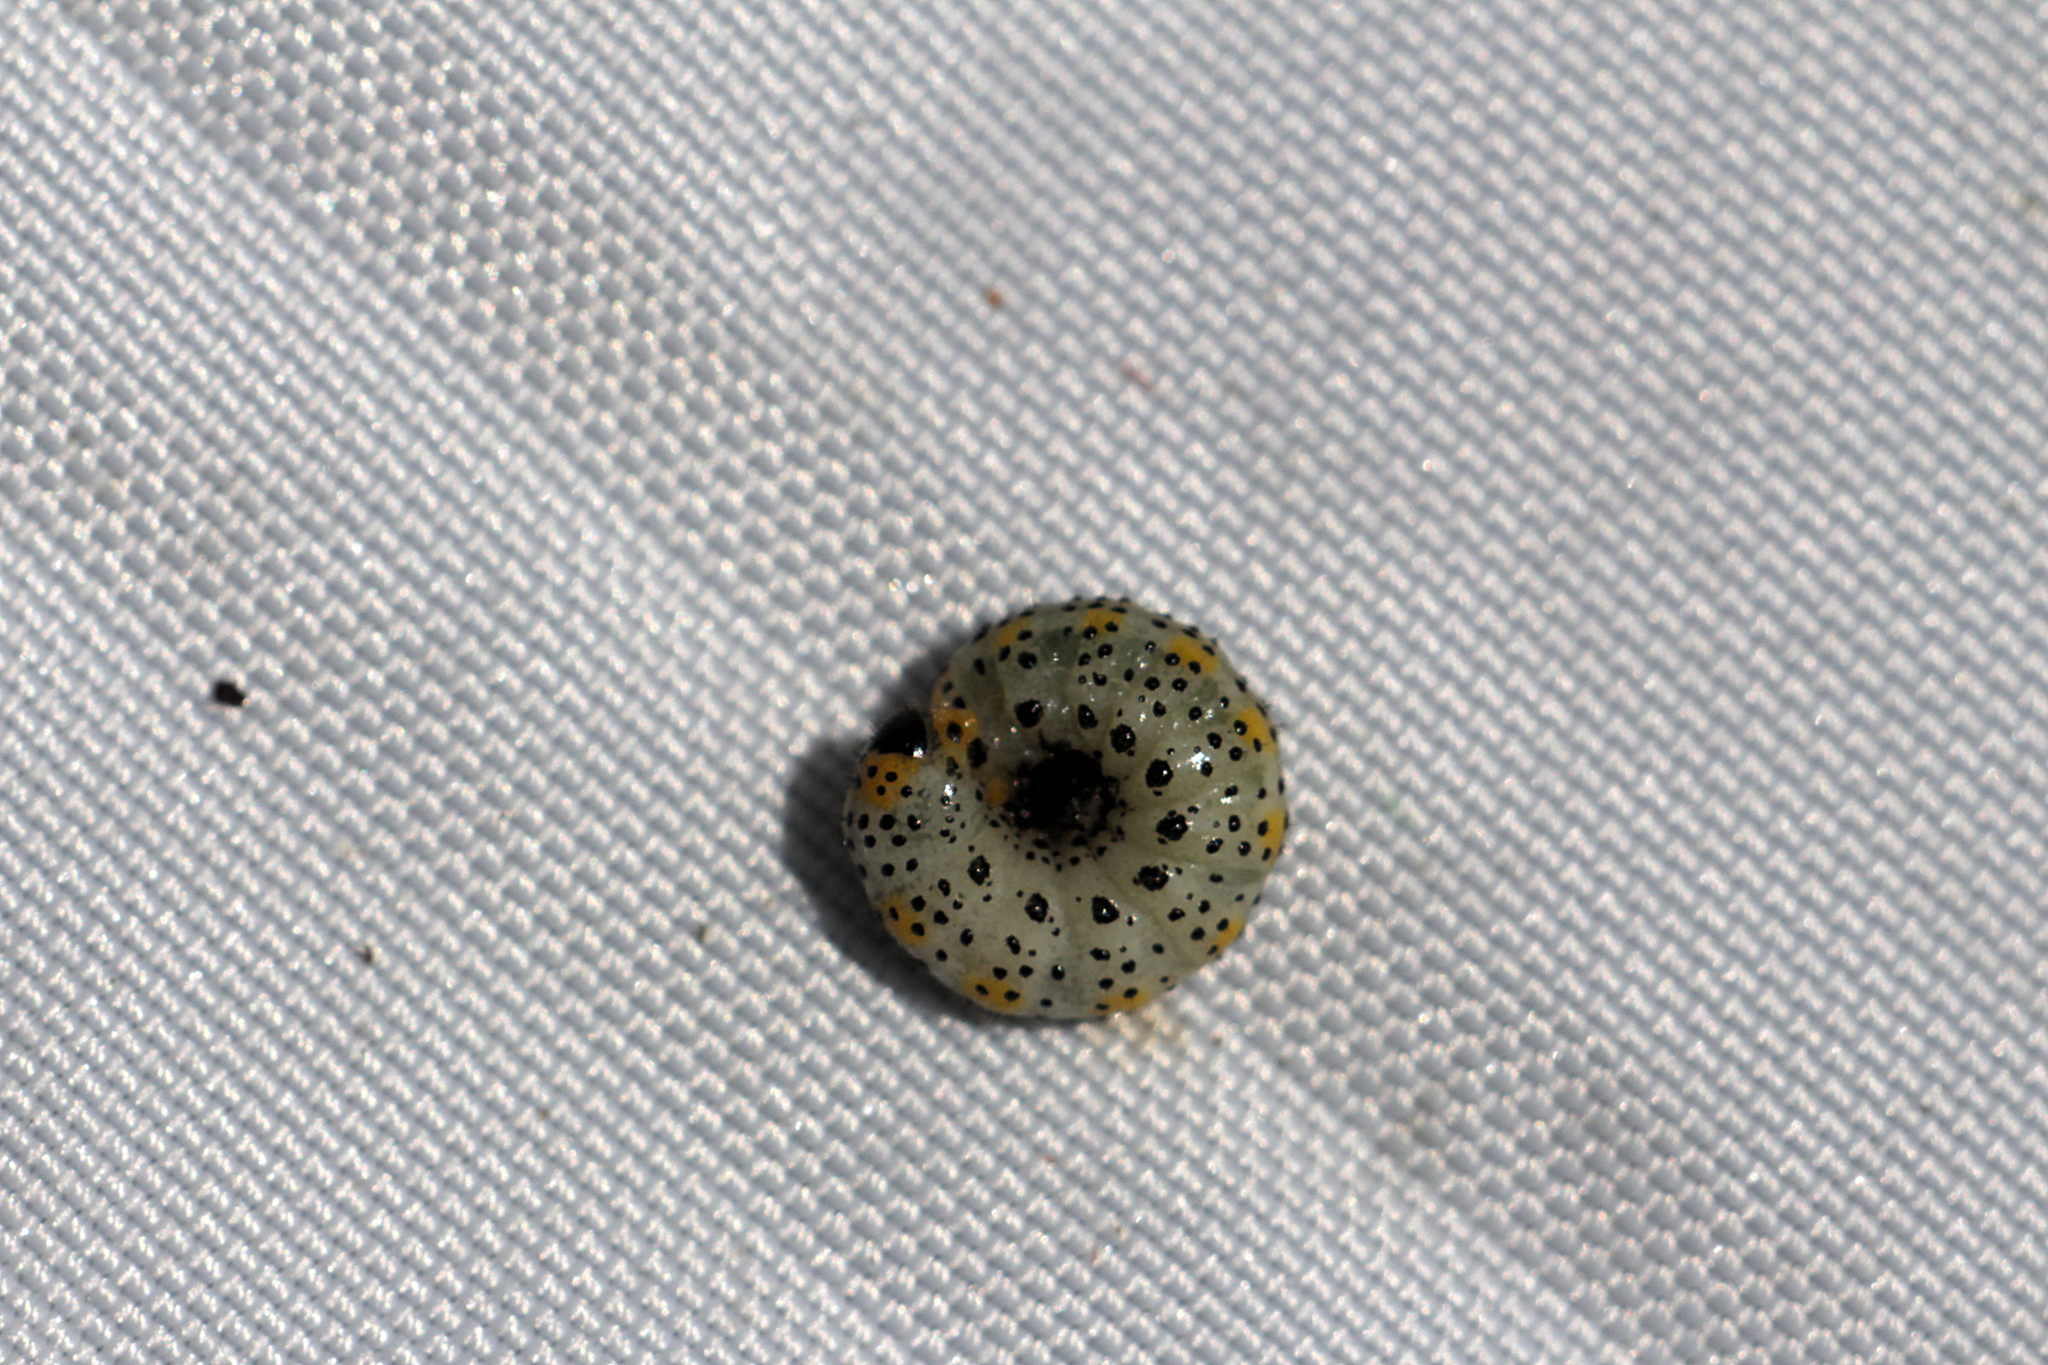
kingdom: Animalia
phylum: Arthropoda
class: Insecta
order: Hymenoptera
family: Argidae
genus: Arge
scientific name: Arge berberidis
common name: Berberis sawfly
